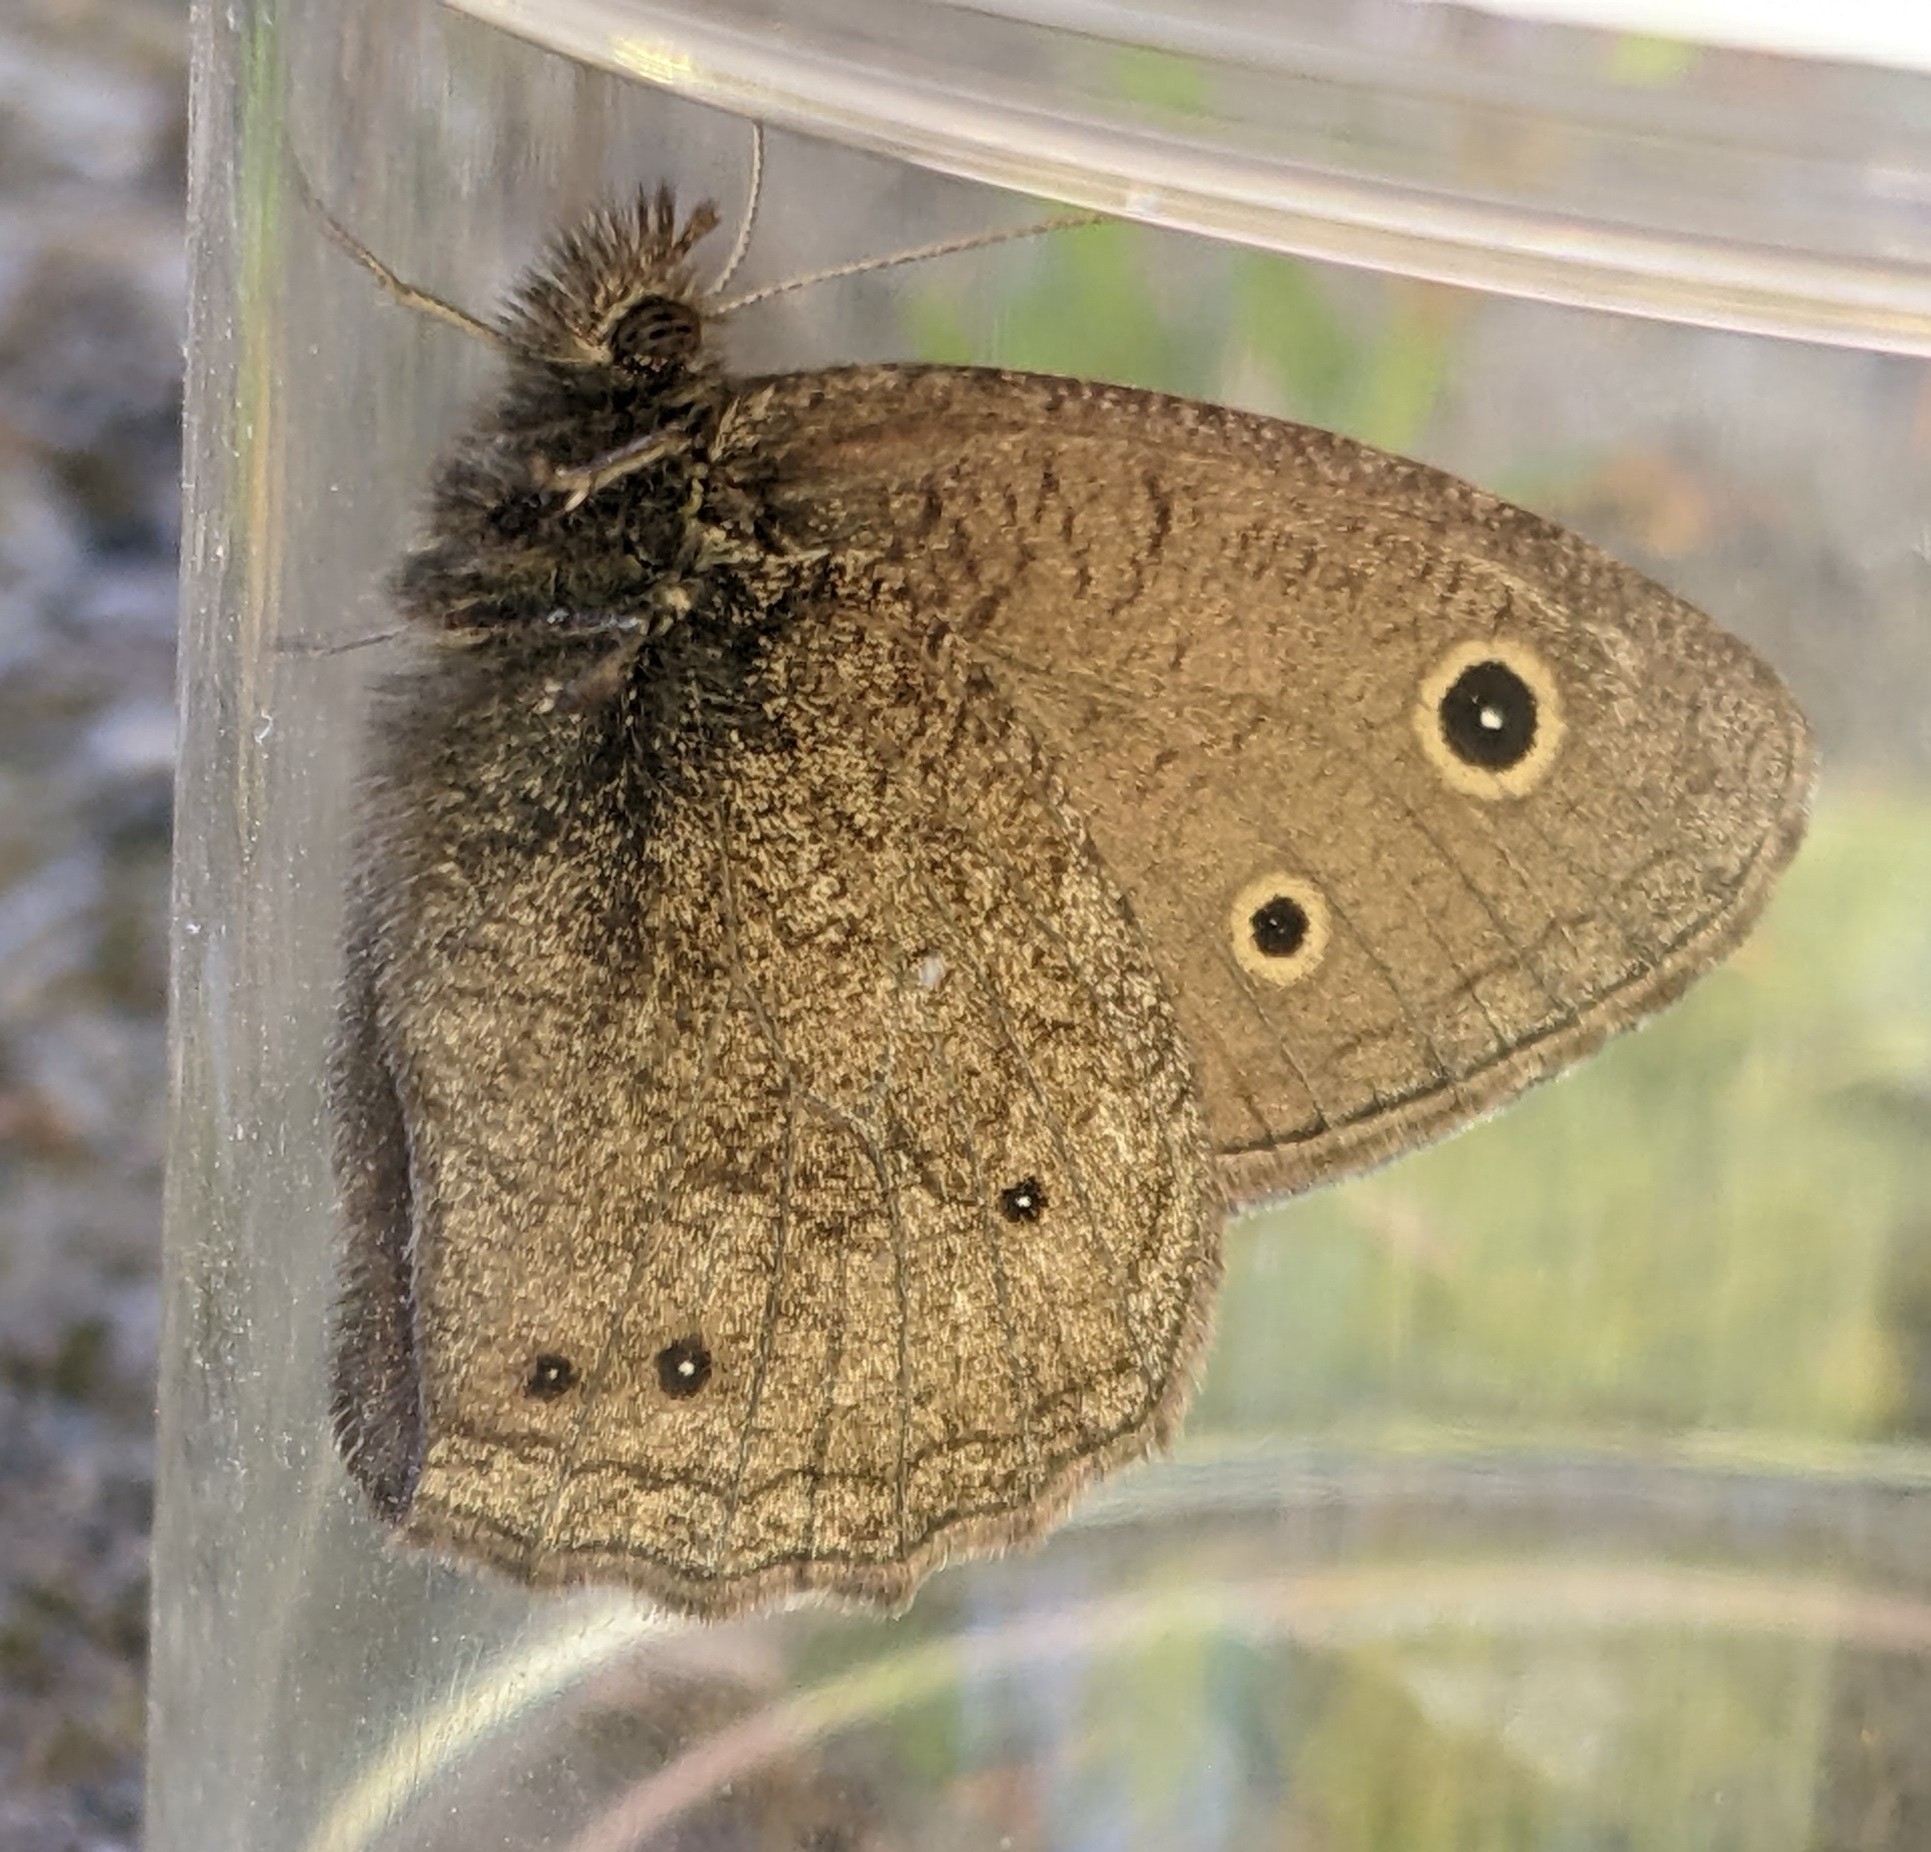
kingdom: Animalia
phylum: Arthropoda
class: Insecta
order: Lepidoptera
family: Nymphalidae
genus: Cercyonis
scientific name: Cercyonis oetus
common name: Small wood-nymph
